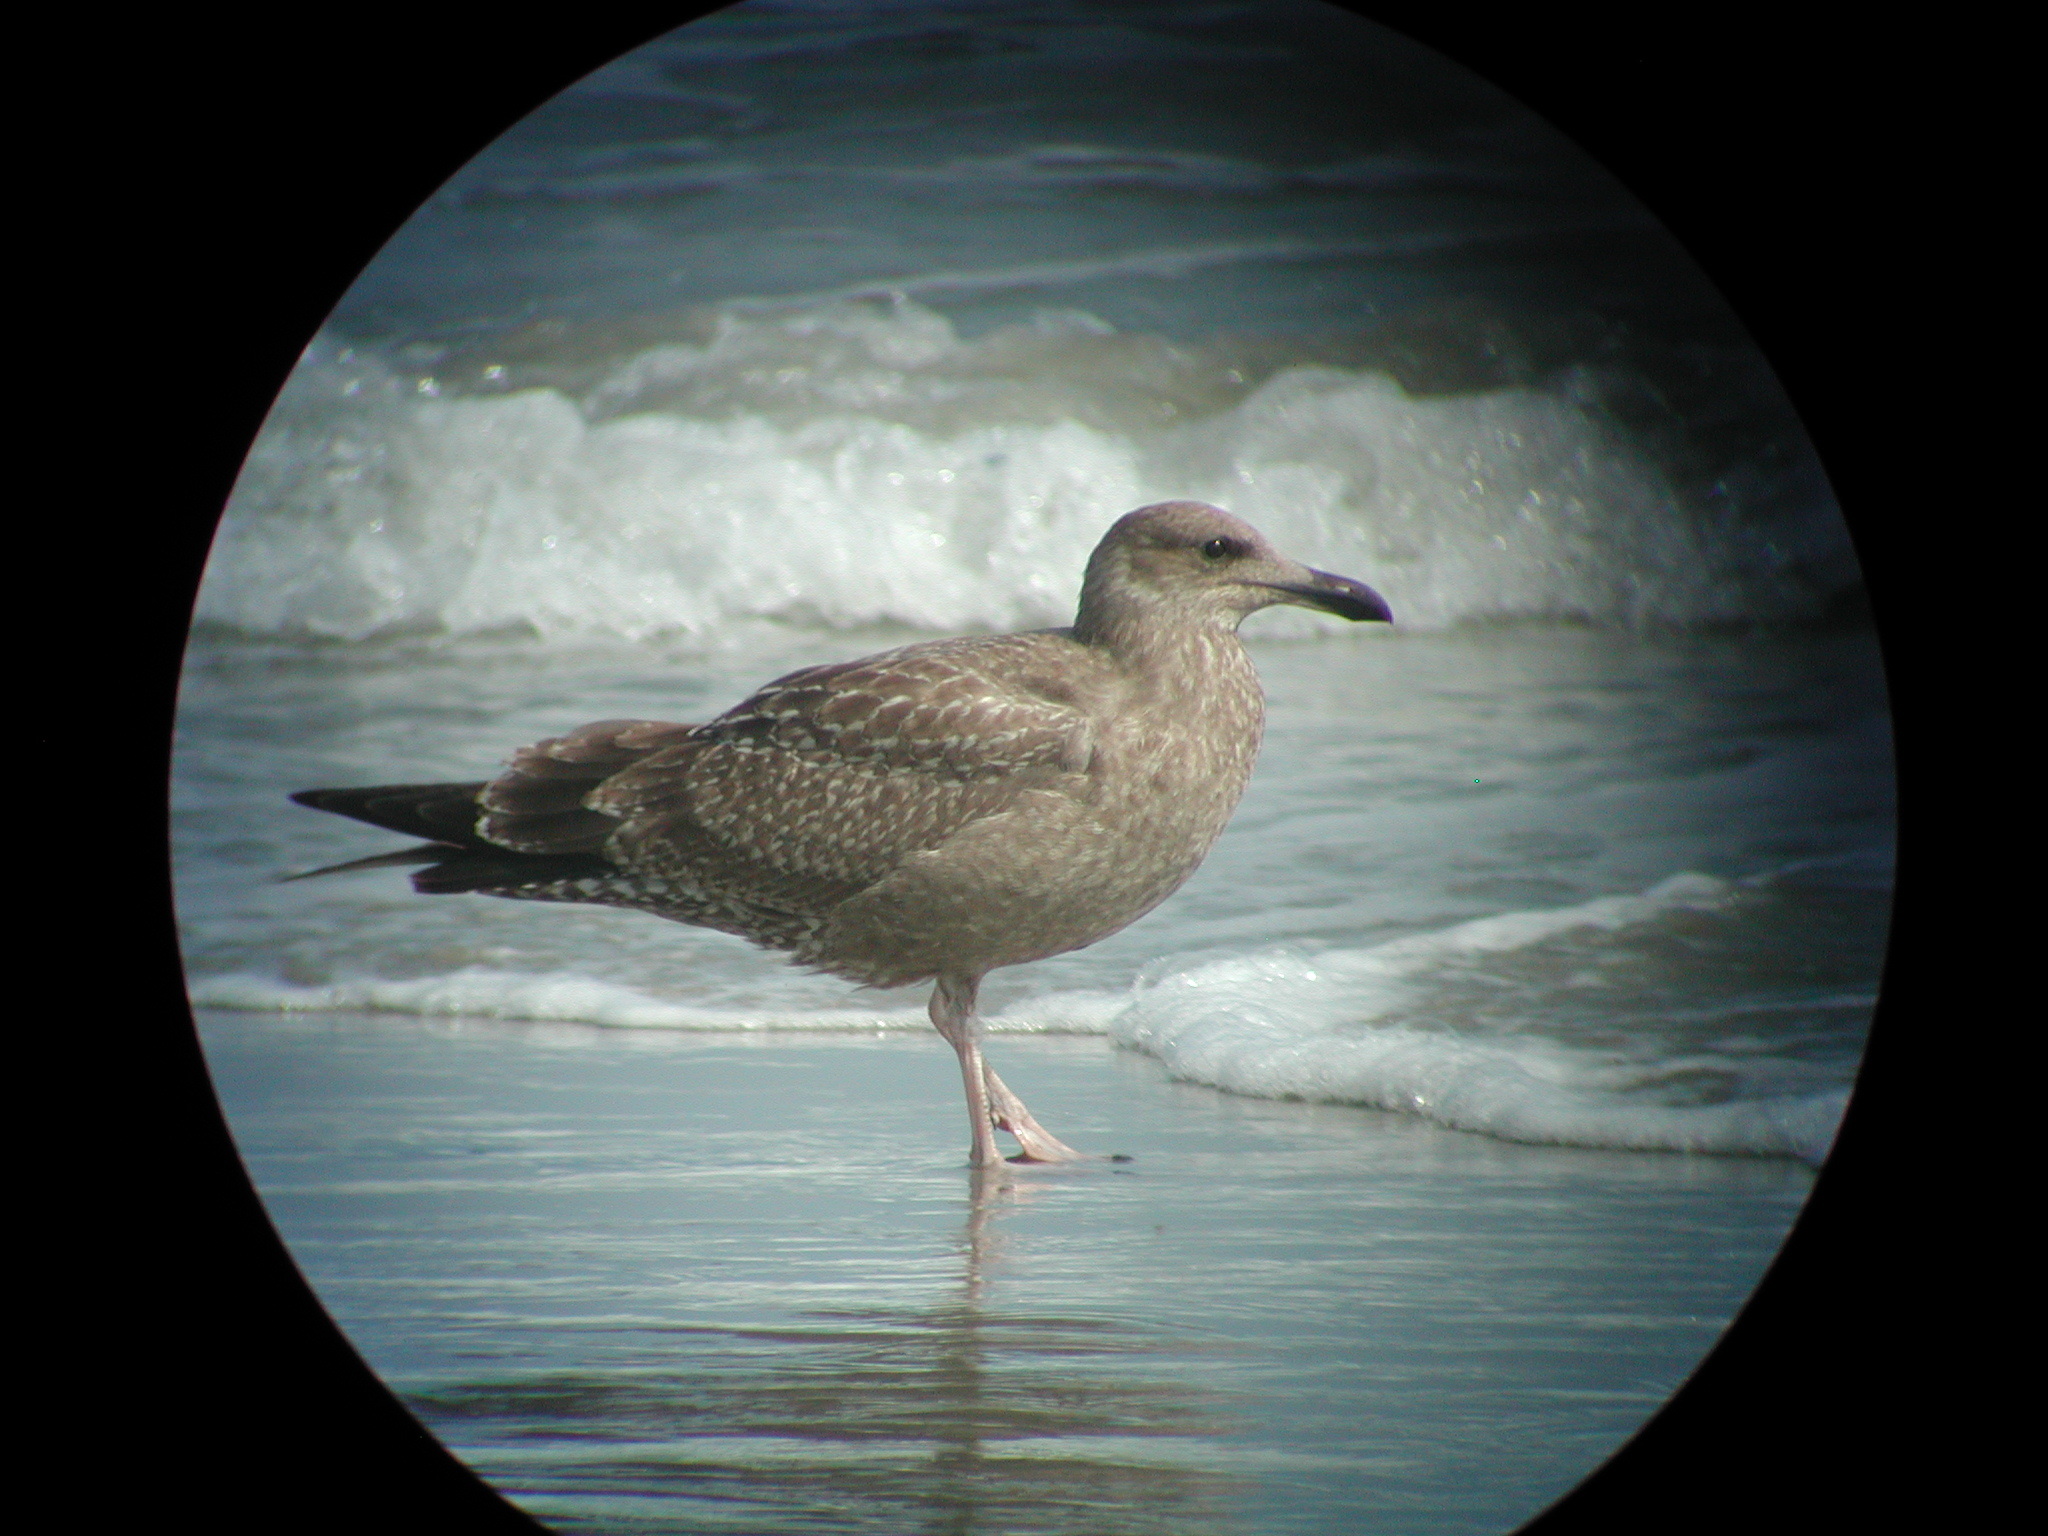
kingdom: Animalia
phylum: Chordata
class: Aves
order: Charadriiformes
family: Laridae
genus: Larus
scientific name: Larus argentatus
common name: Herring gull
